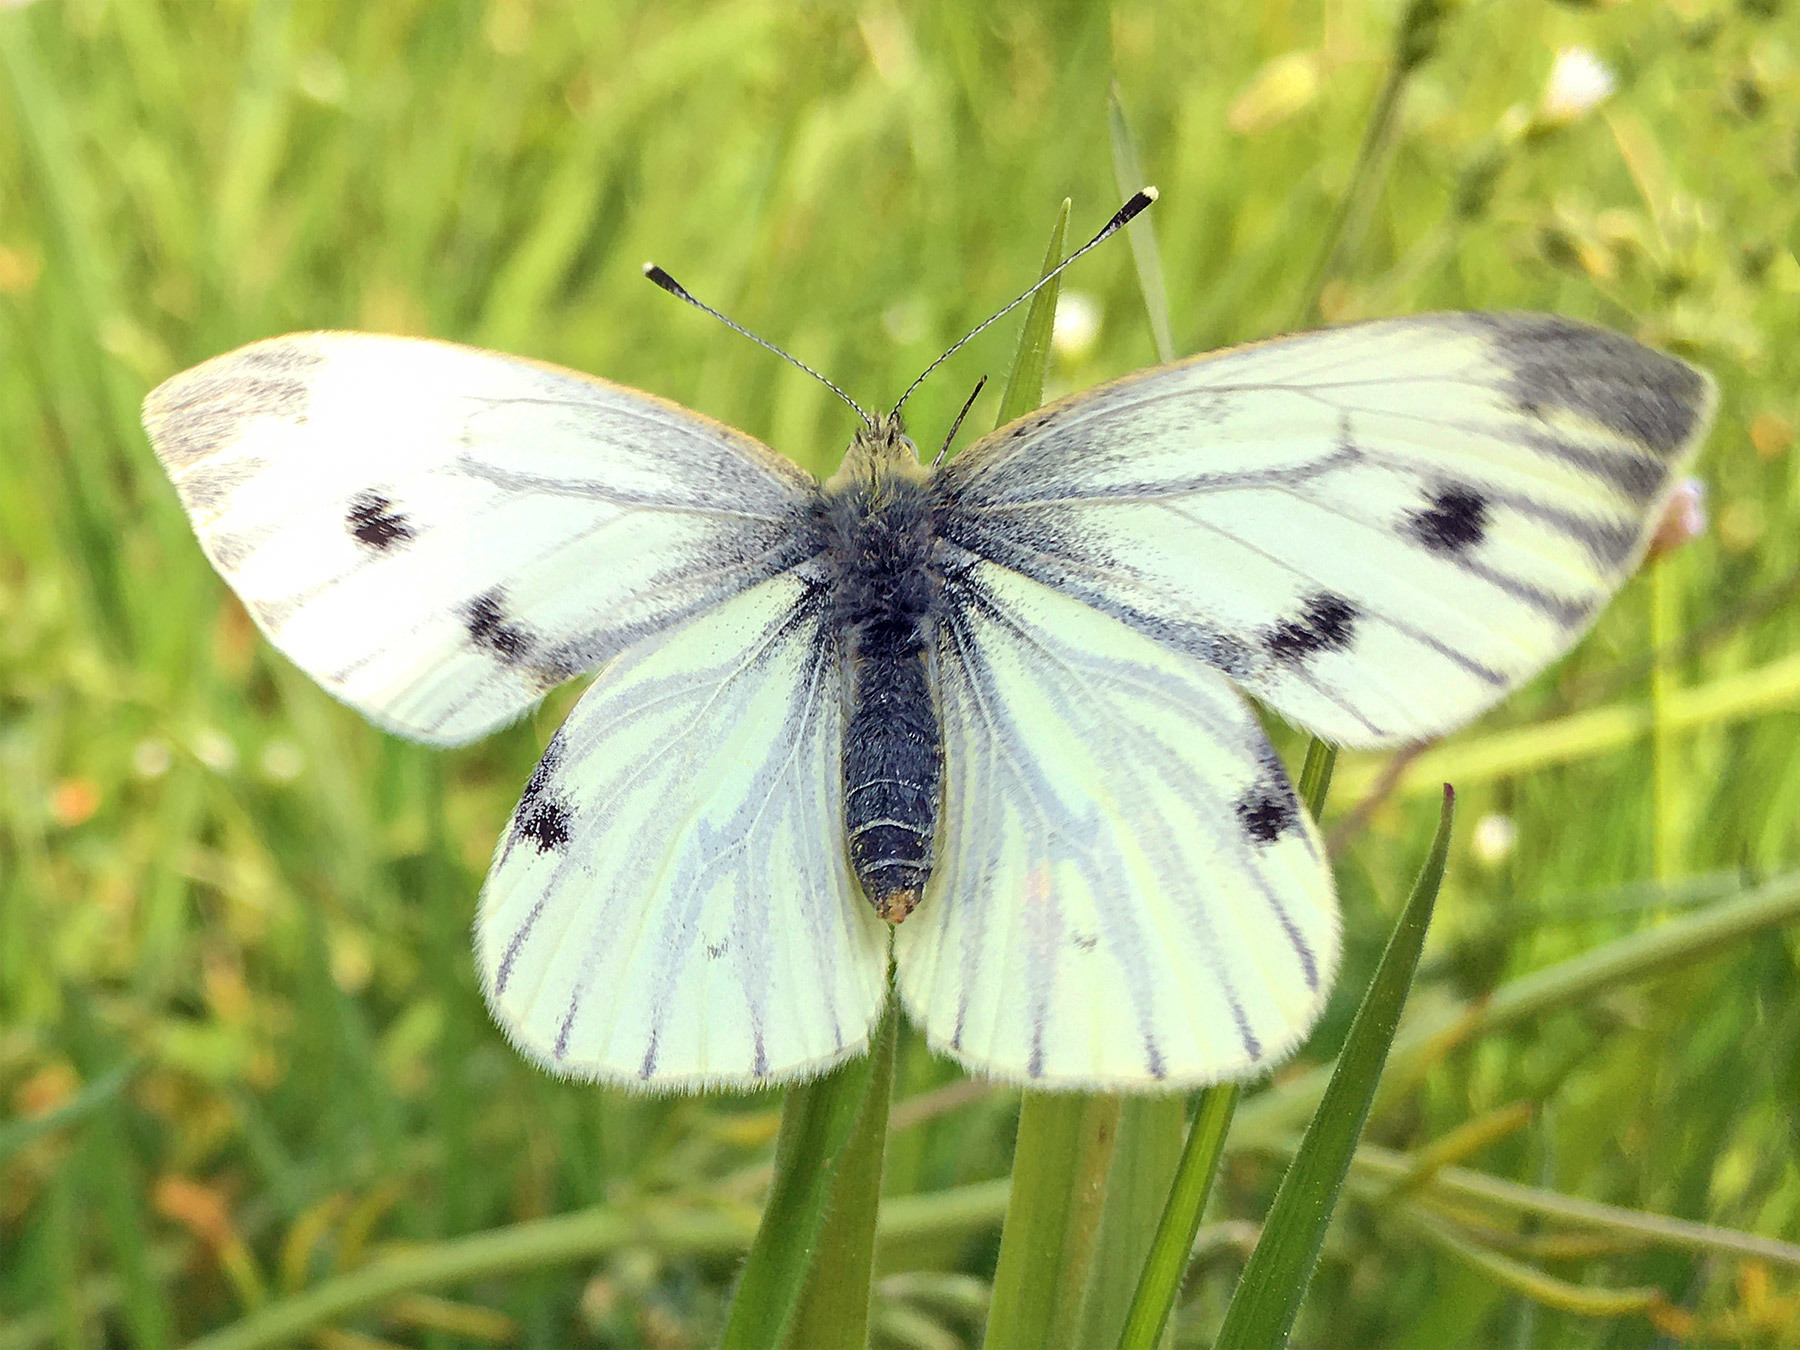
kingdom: Animalia
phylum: Arthropoda
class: Insecta
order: Lepidoptera
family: Pieridae
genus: Pieris
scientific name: Pieris napi
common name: Green-veined white
